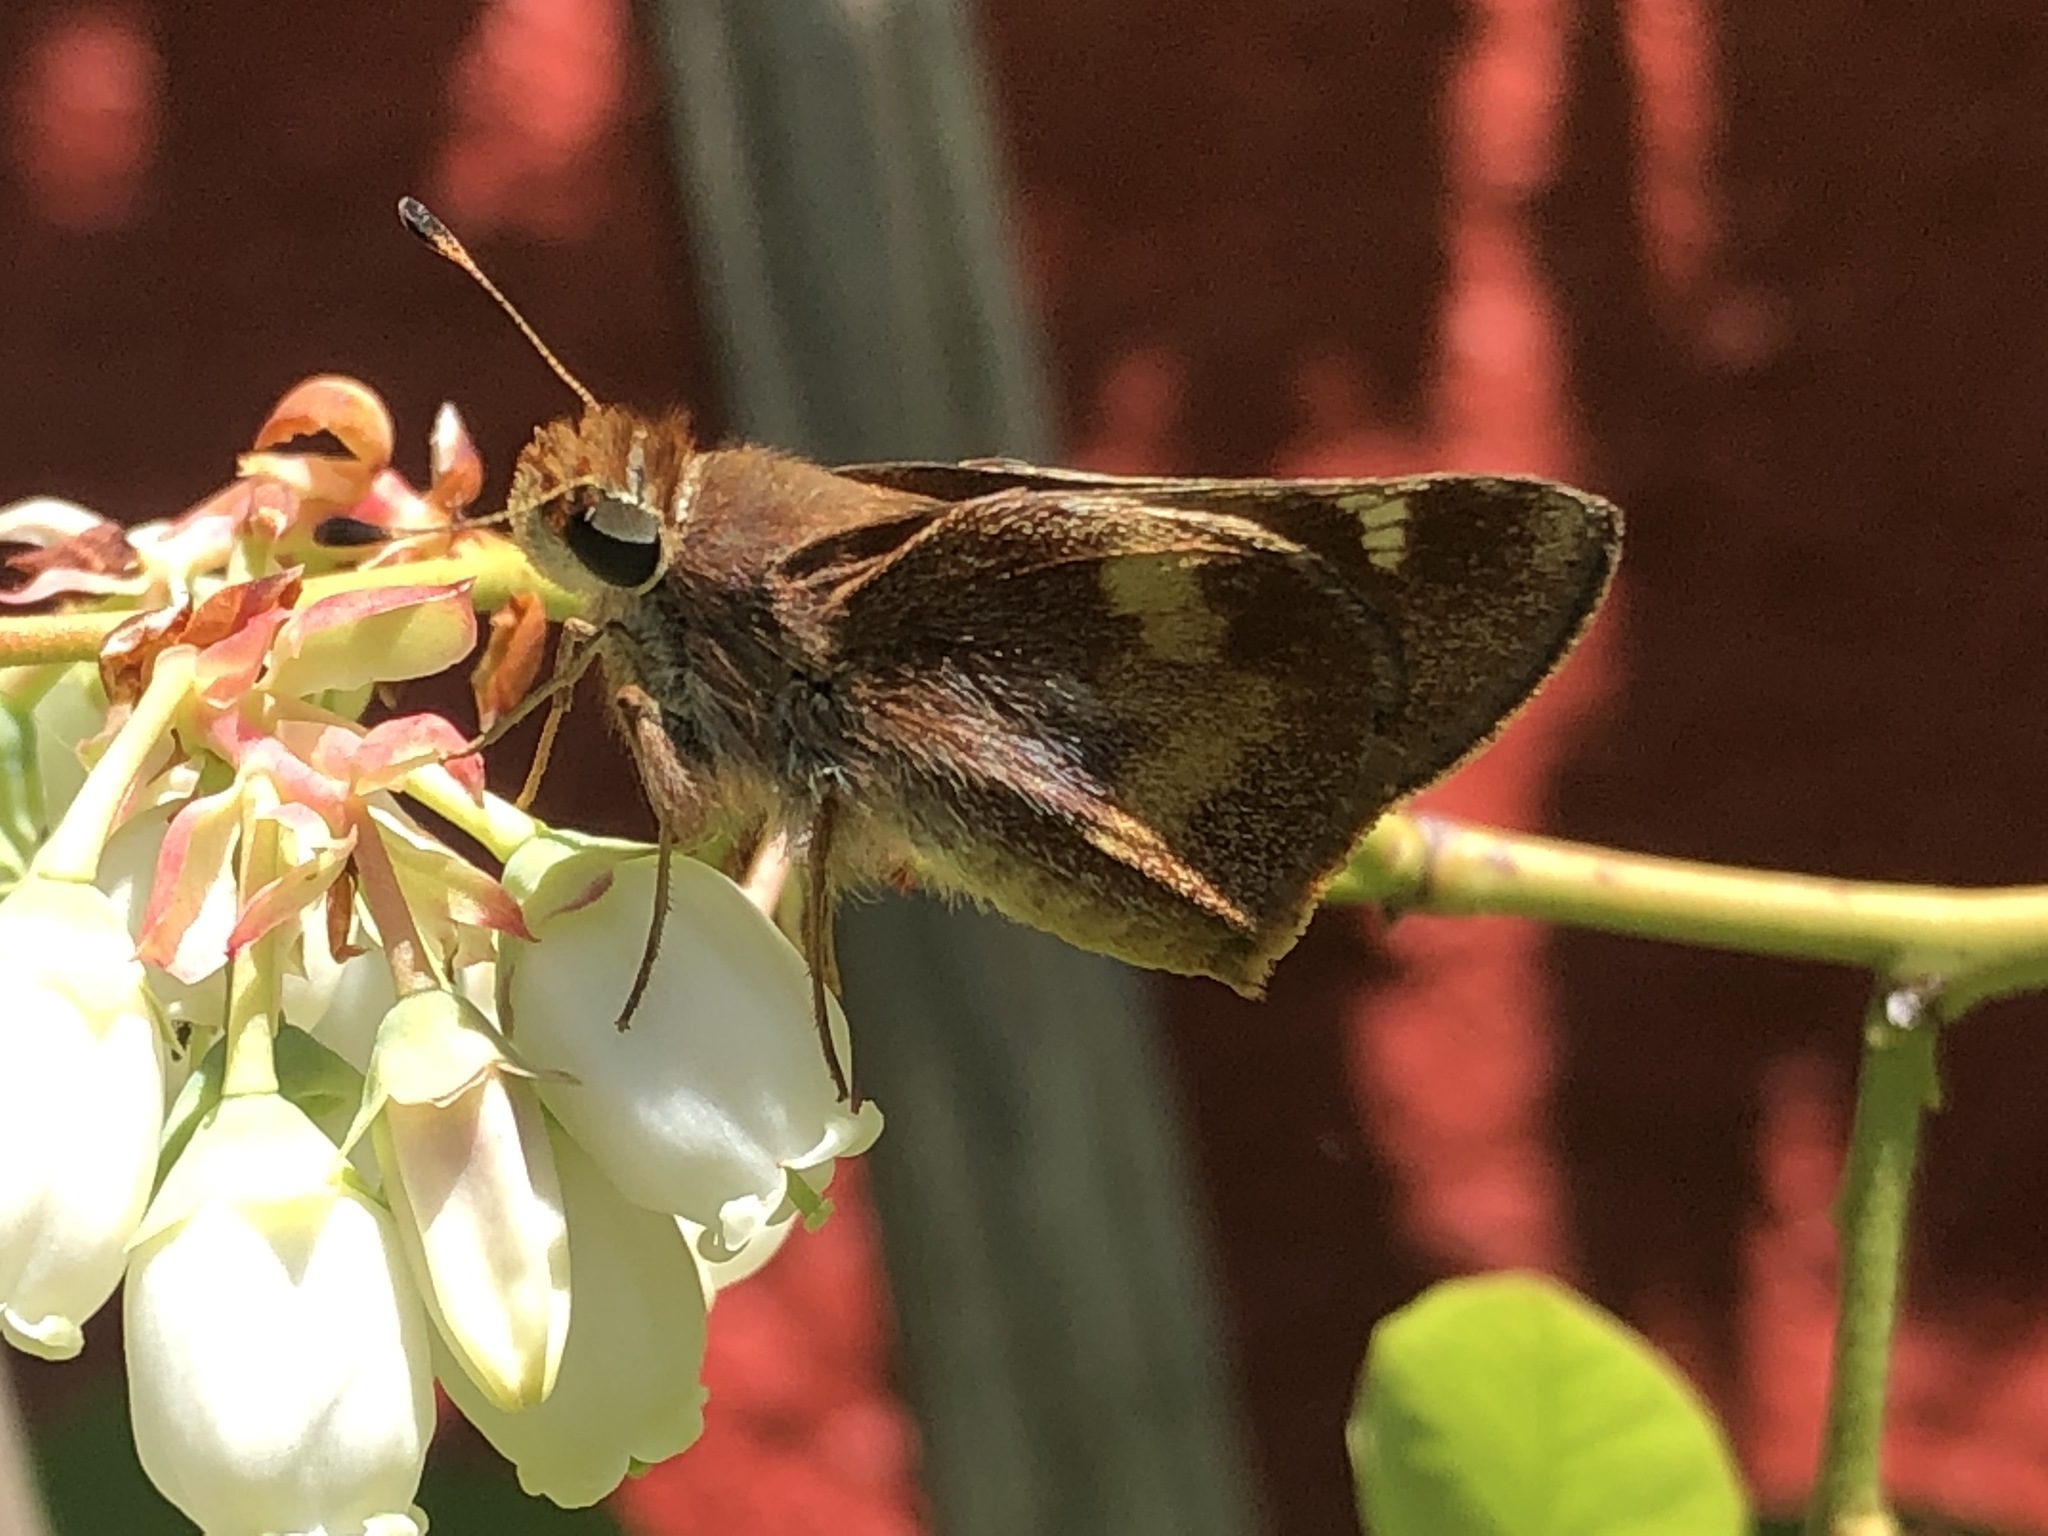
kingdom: Animalia
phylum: Arthropoda
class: Insecta
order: Lepidoptera
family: Hesperiidae
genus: Lon
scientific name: Lon melane
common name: Umber skipper
